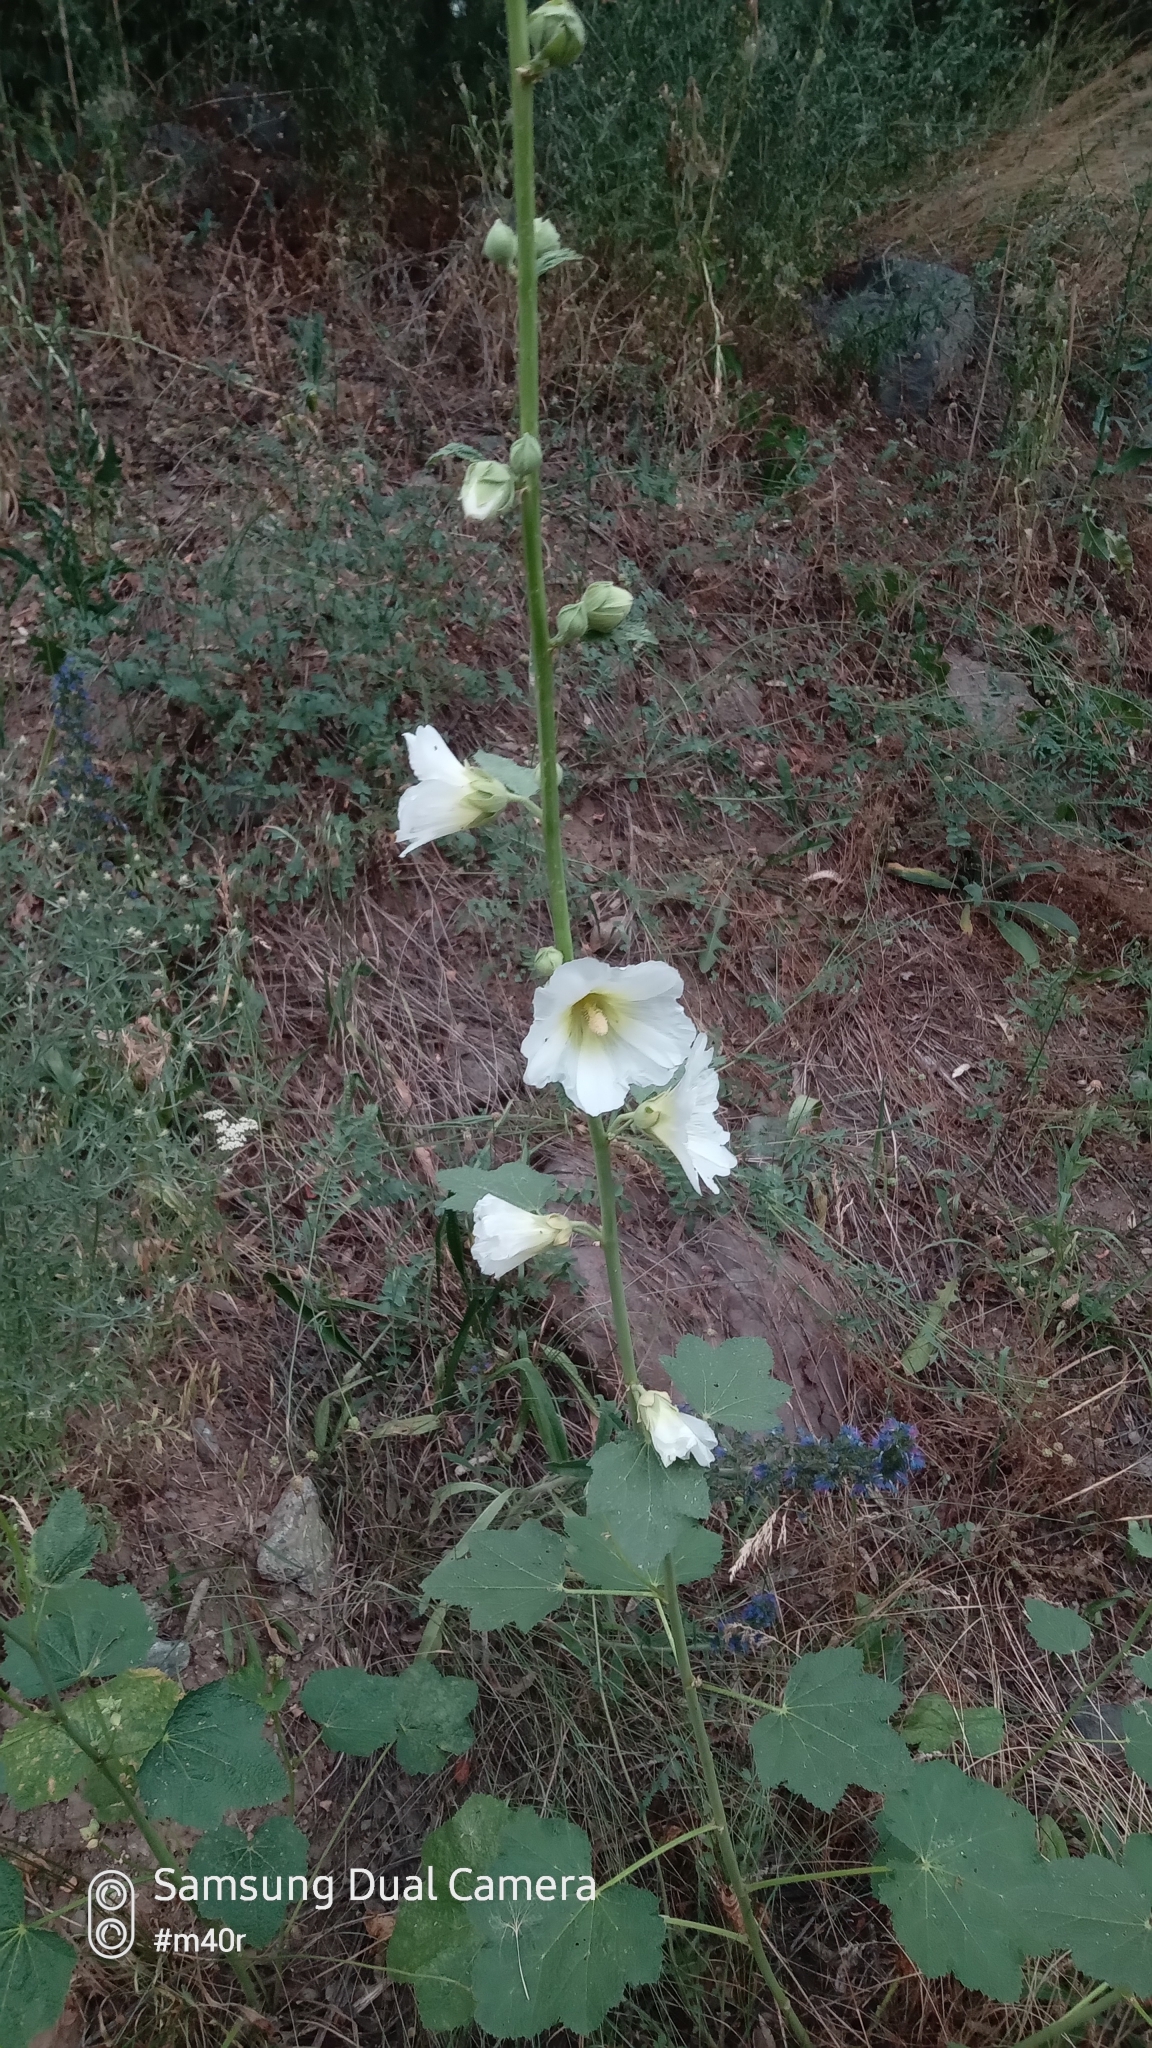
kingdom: Plantae
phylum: Tracheophyta
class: Magnoliopsida
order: Malvales
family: Malvaceae
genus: Alcea
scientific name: Alcea nudiflora
